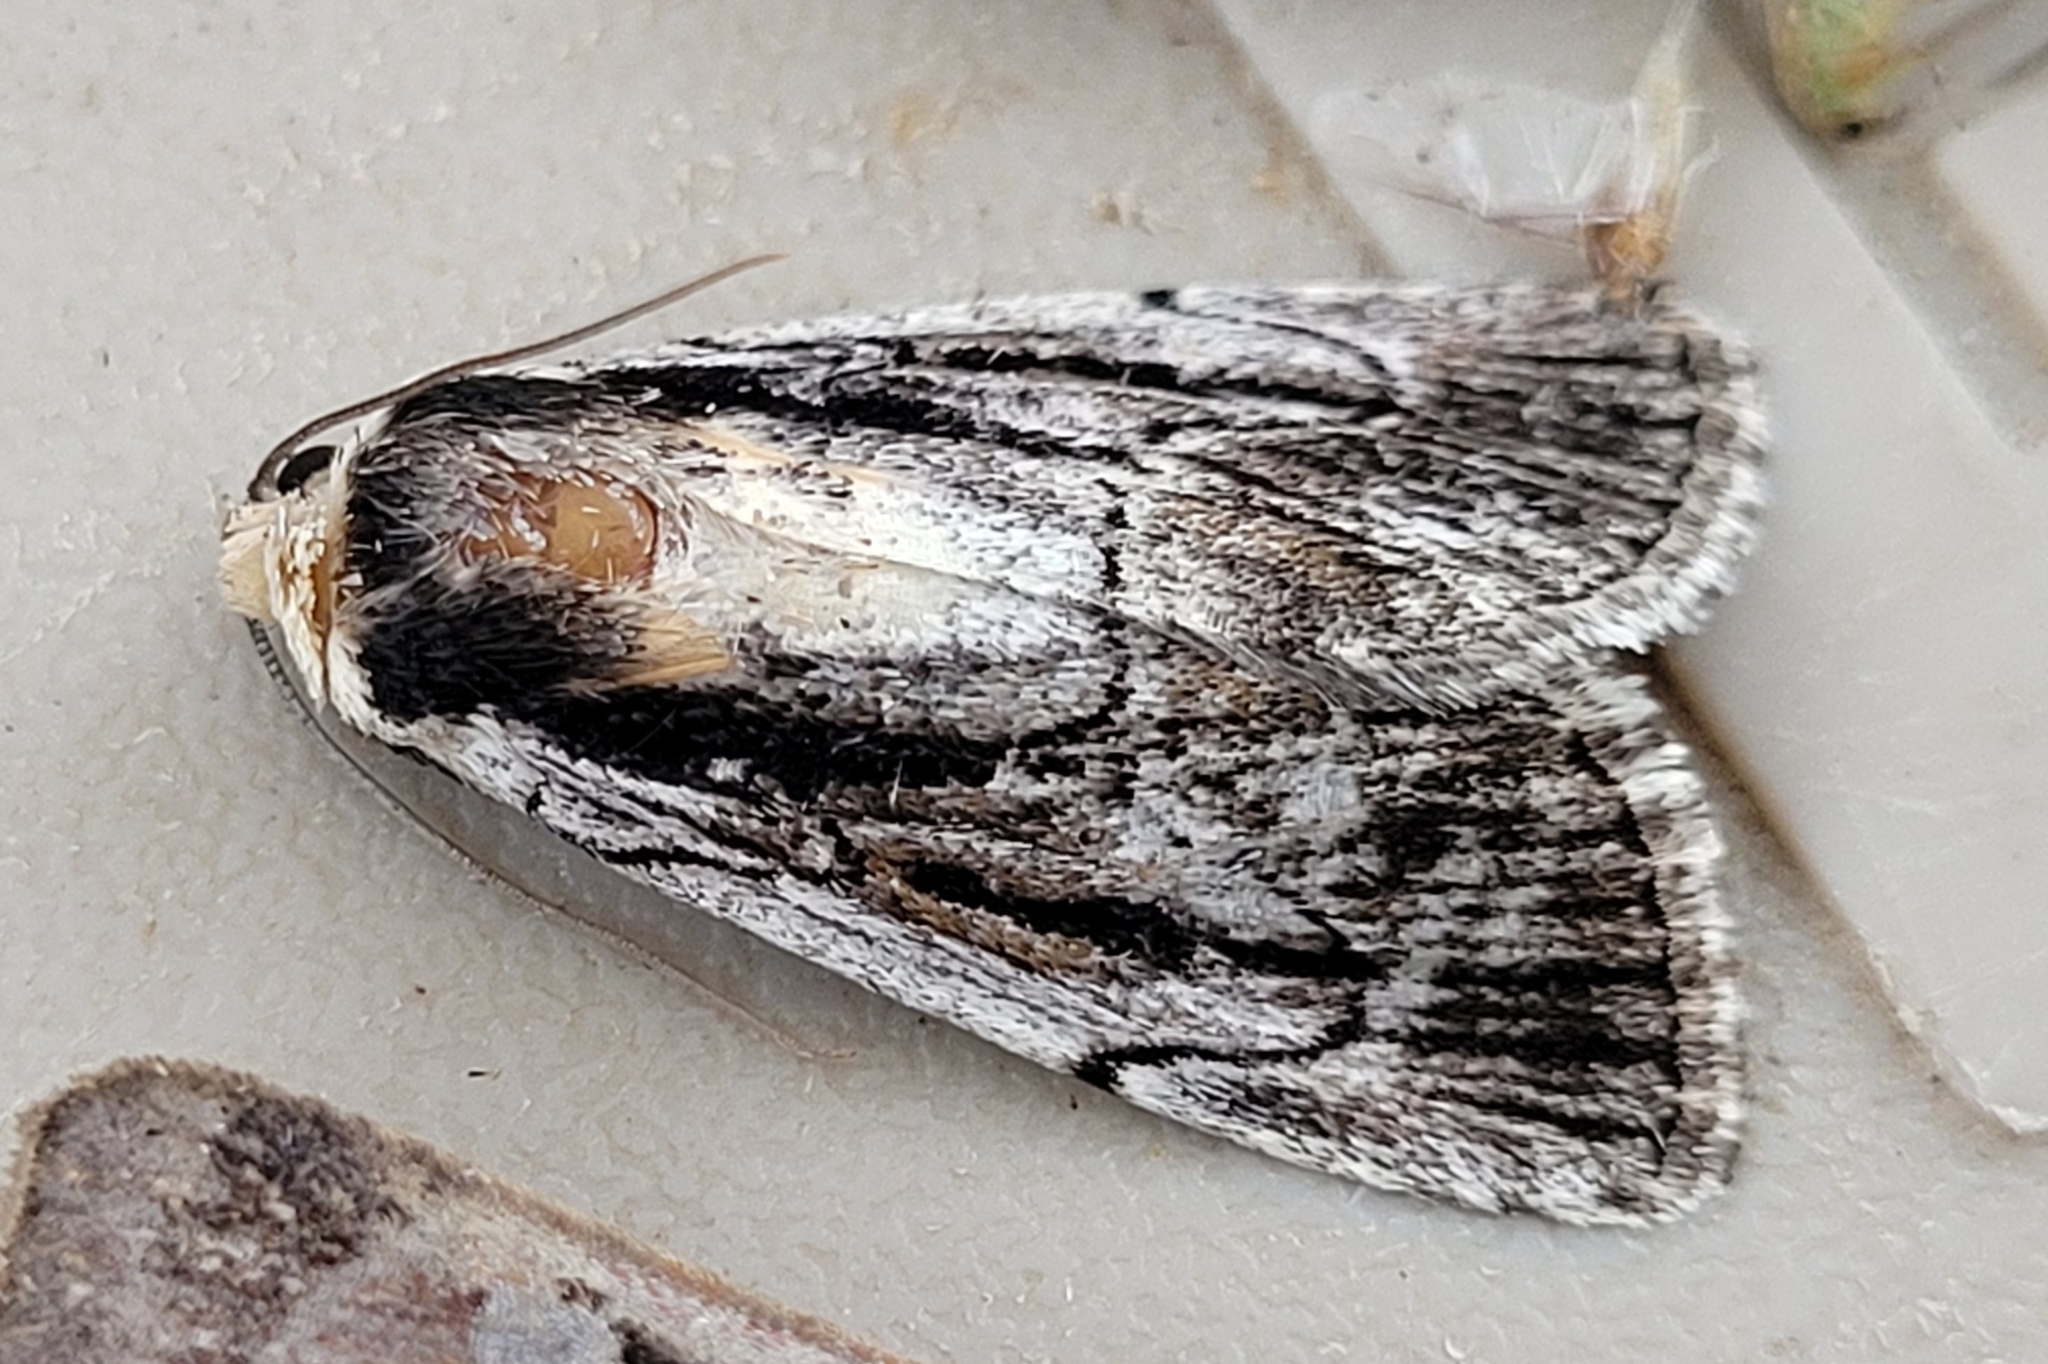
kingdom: Animalia
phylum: Arthropoda
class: Insecta
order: Lepidoptera
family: Noctuidae
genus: Sympistis
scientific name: Sympistis badistriga
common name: Brown-lined sallow moth
